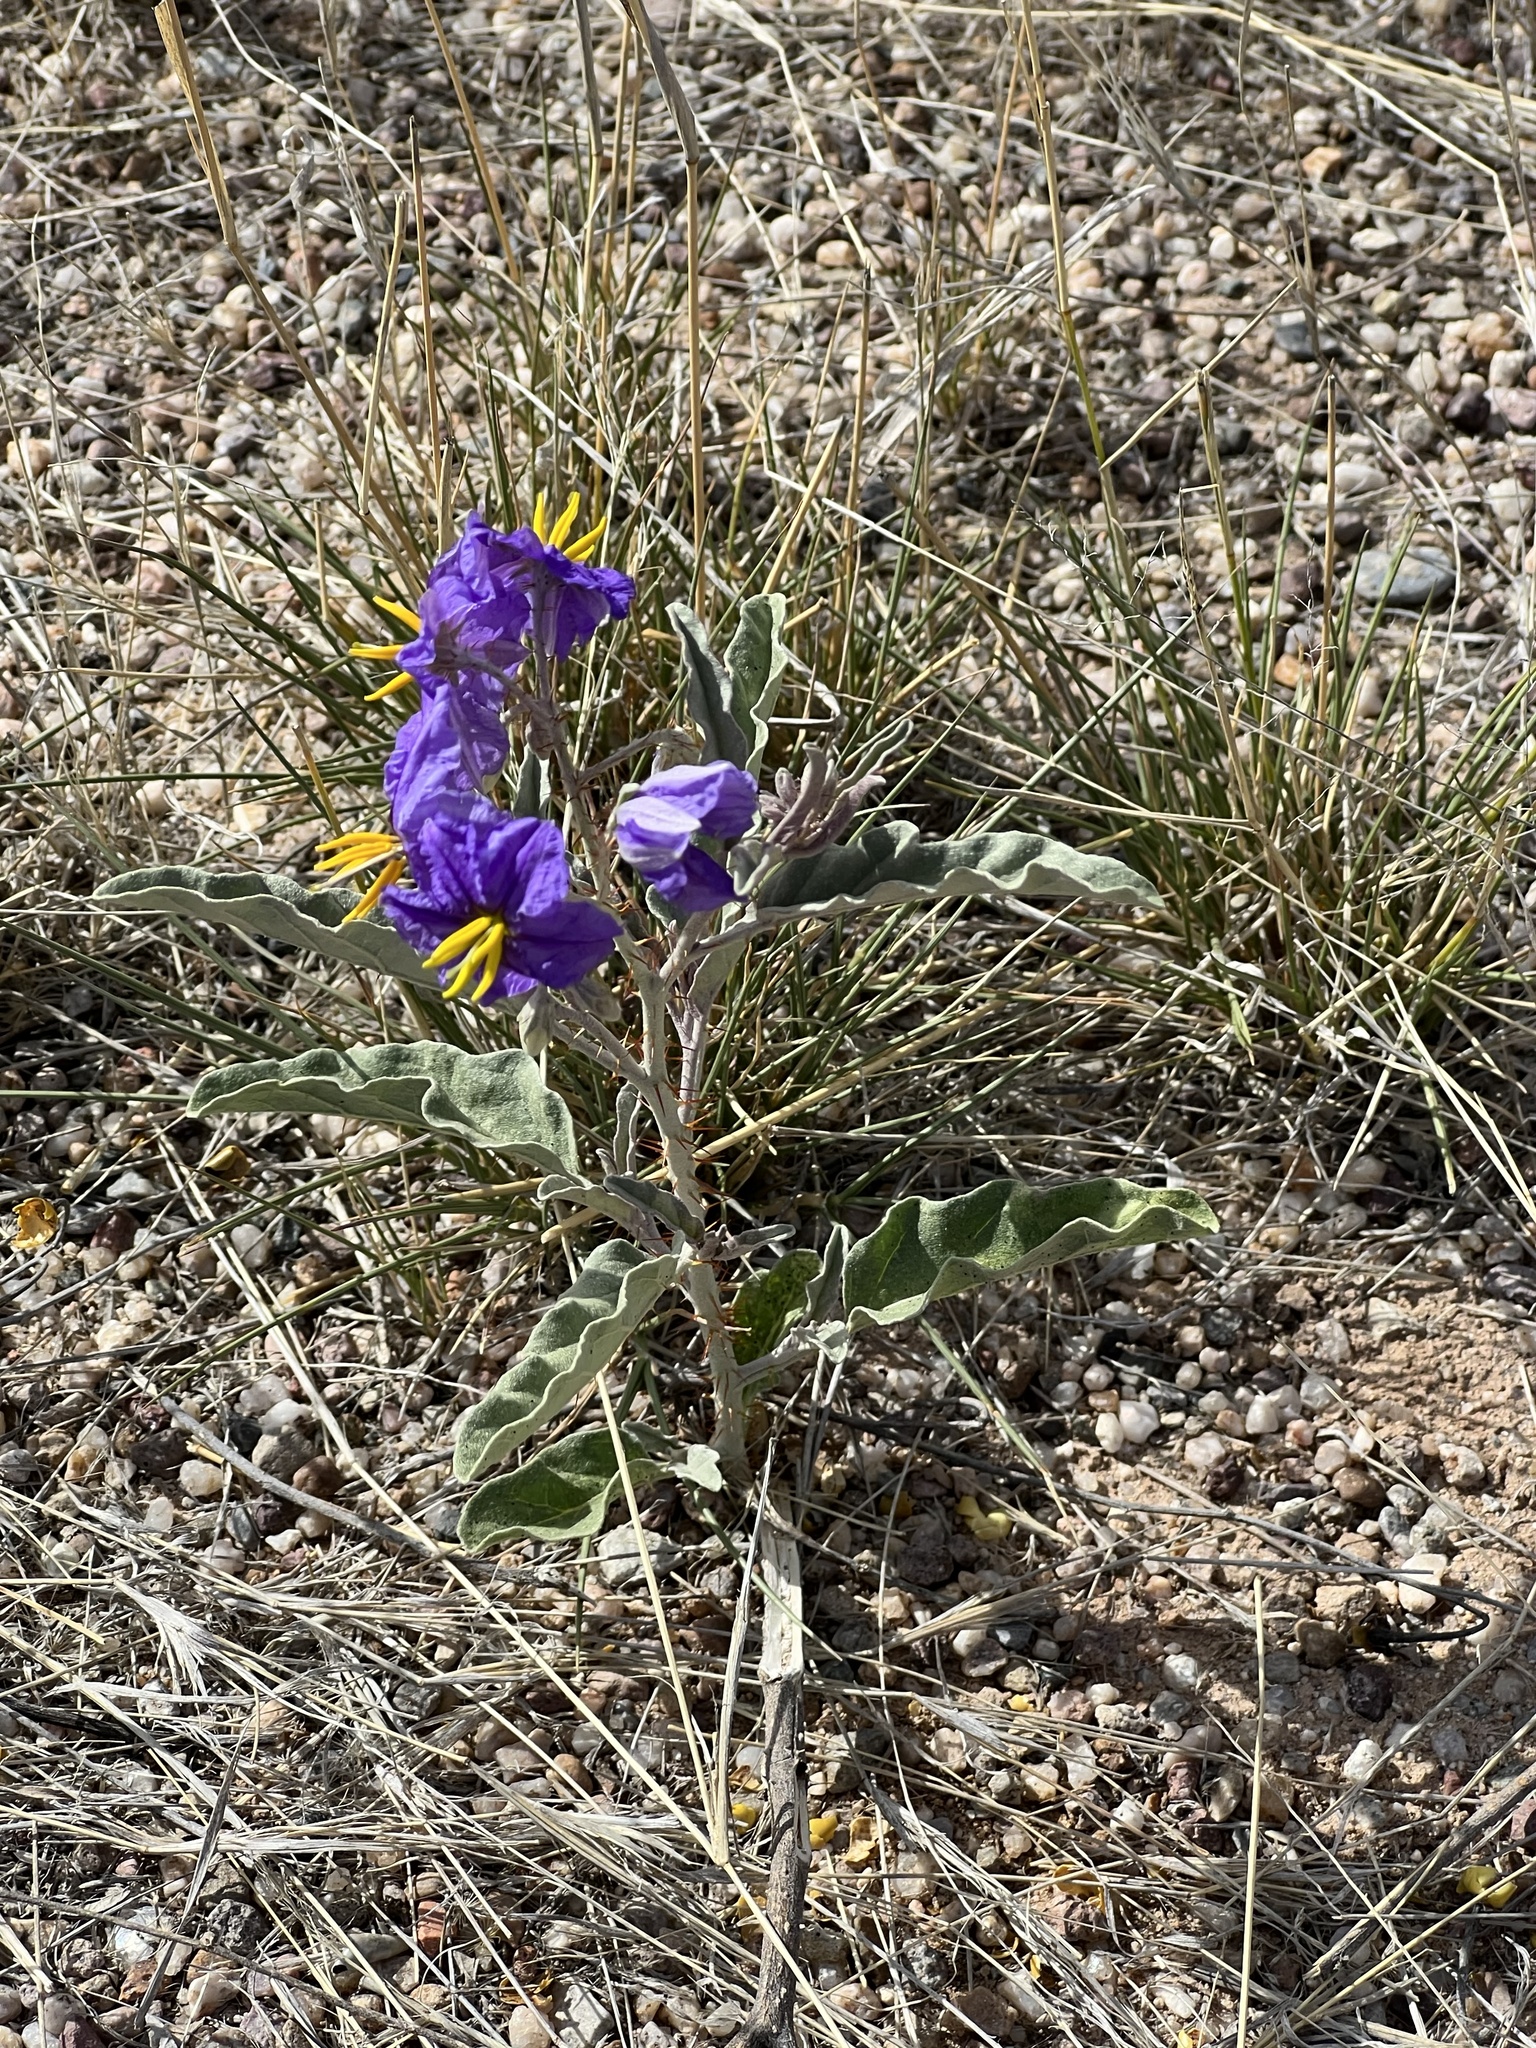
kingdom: Plantae
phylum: Tracheophyta
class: Magnoliopsida
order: Solanales
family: Solanaceae
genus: Solanum
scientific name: Solanum elaeagnifolium
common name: Silverleaf nightshade
